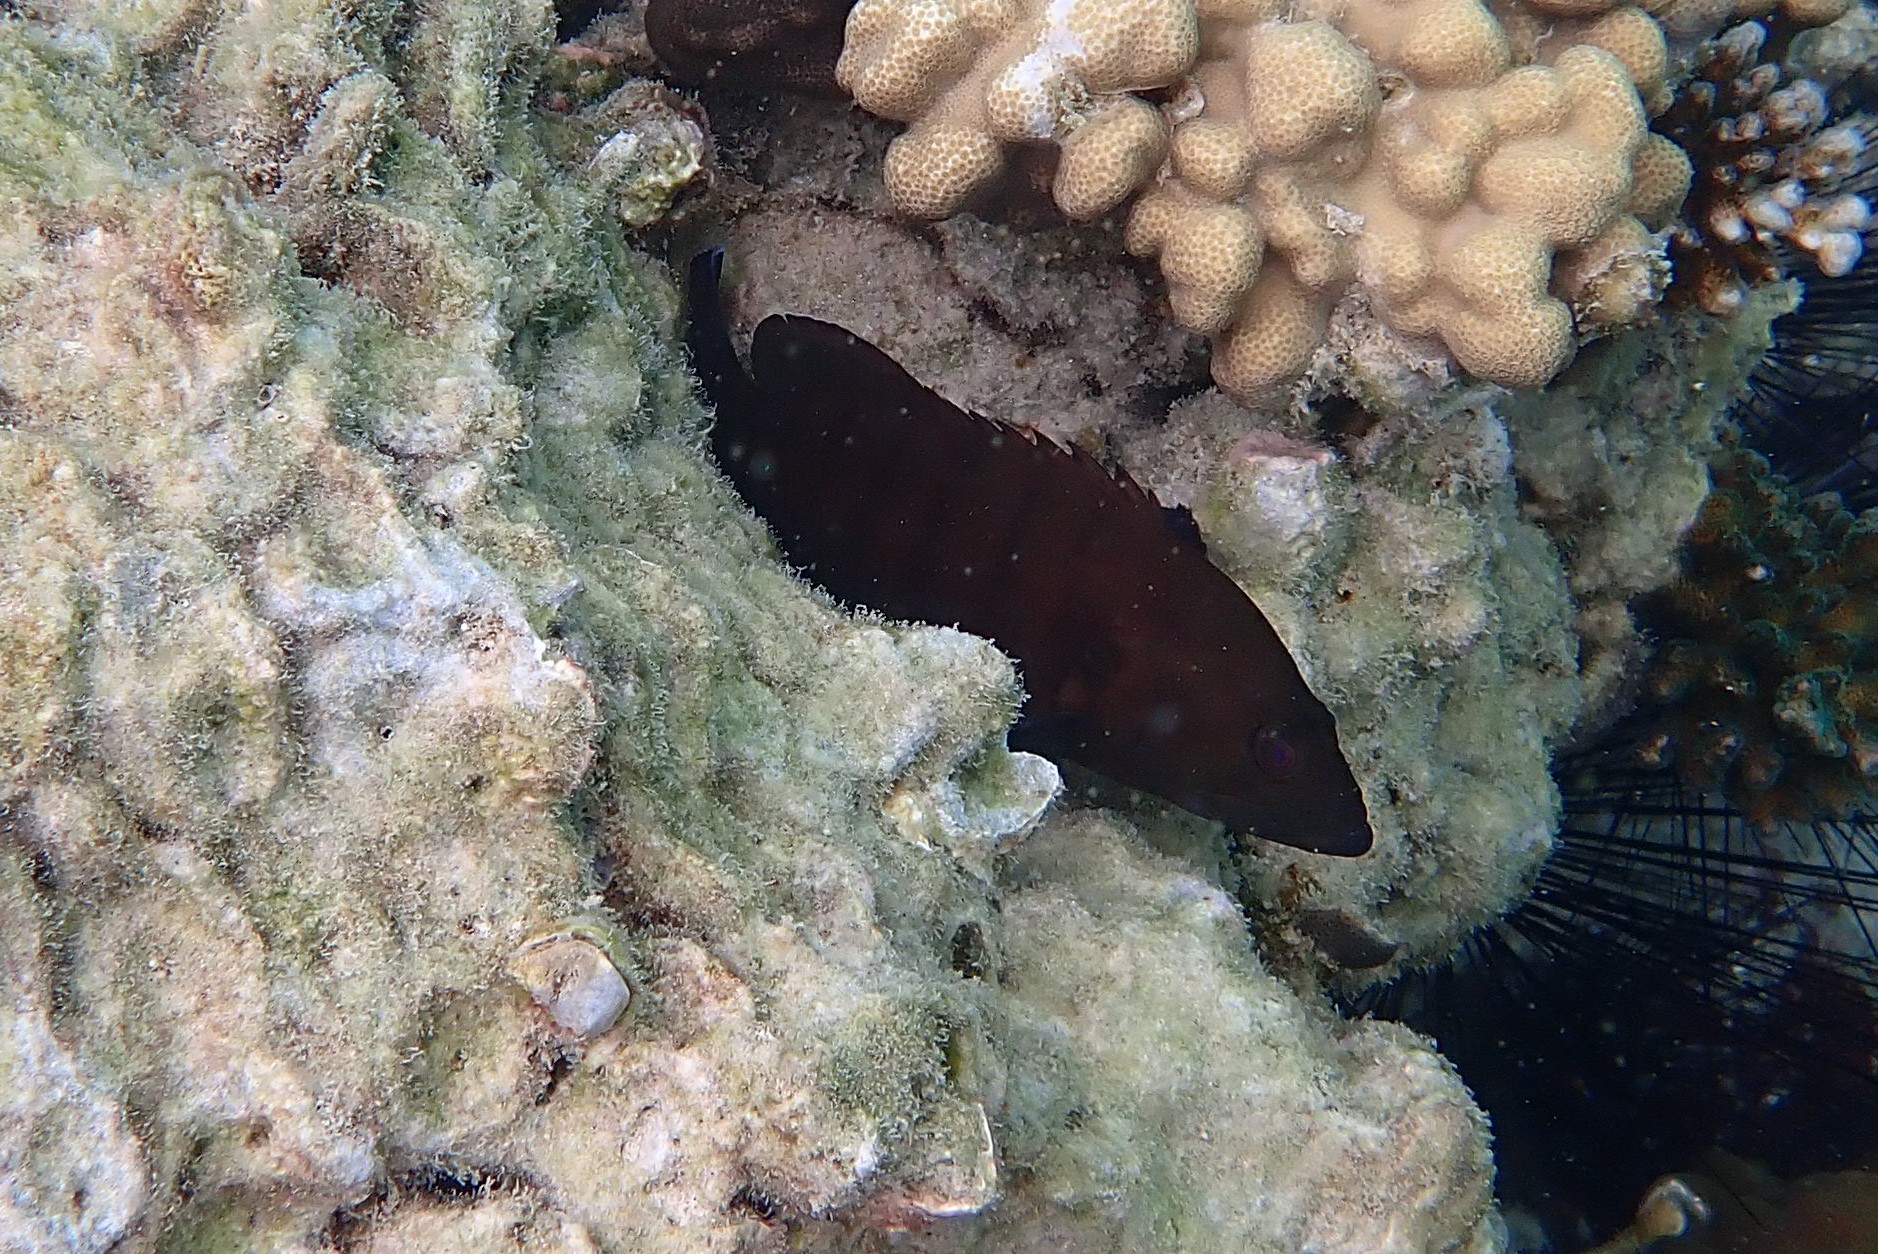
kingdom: Animalia
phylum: Chordata
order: Perciformes
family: Serranidae
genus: Cephalopholis
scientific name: Cephalopholis boenak
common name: Chocolate hind
